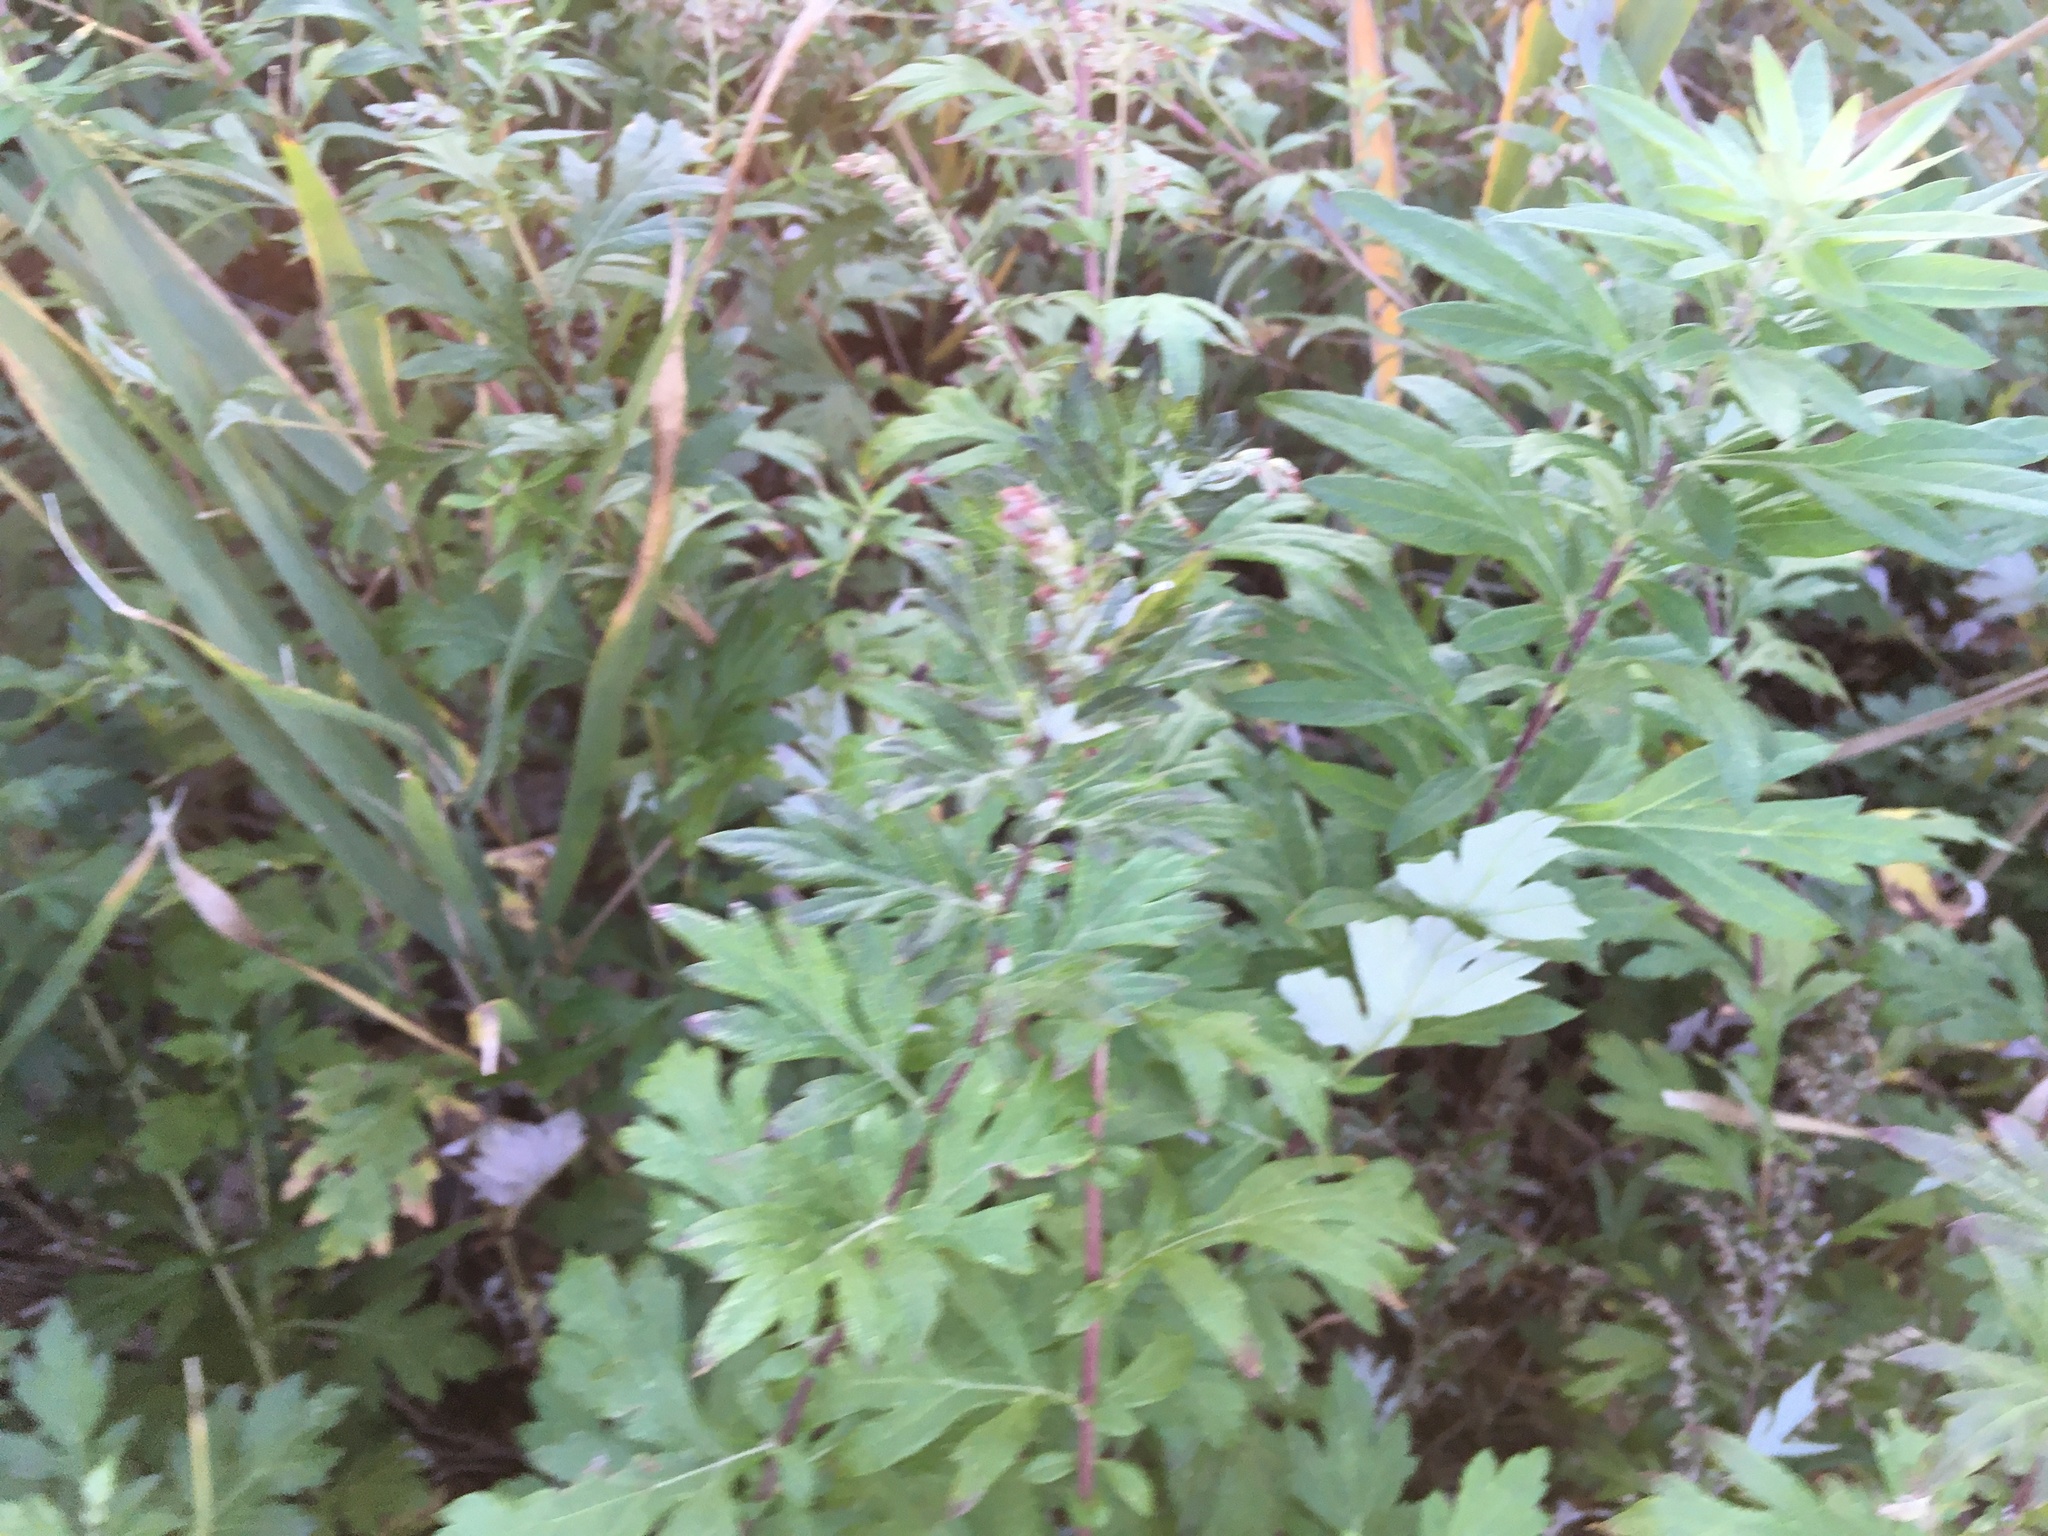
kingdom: Plantae
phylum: Tracheophyta
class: Magnoliopsida
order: Asterales
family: Asteraceae
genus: Artemisia
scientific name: Artemisia vulgaris
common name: Mugwort
